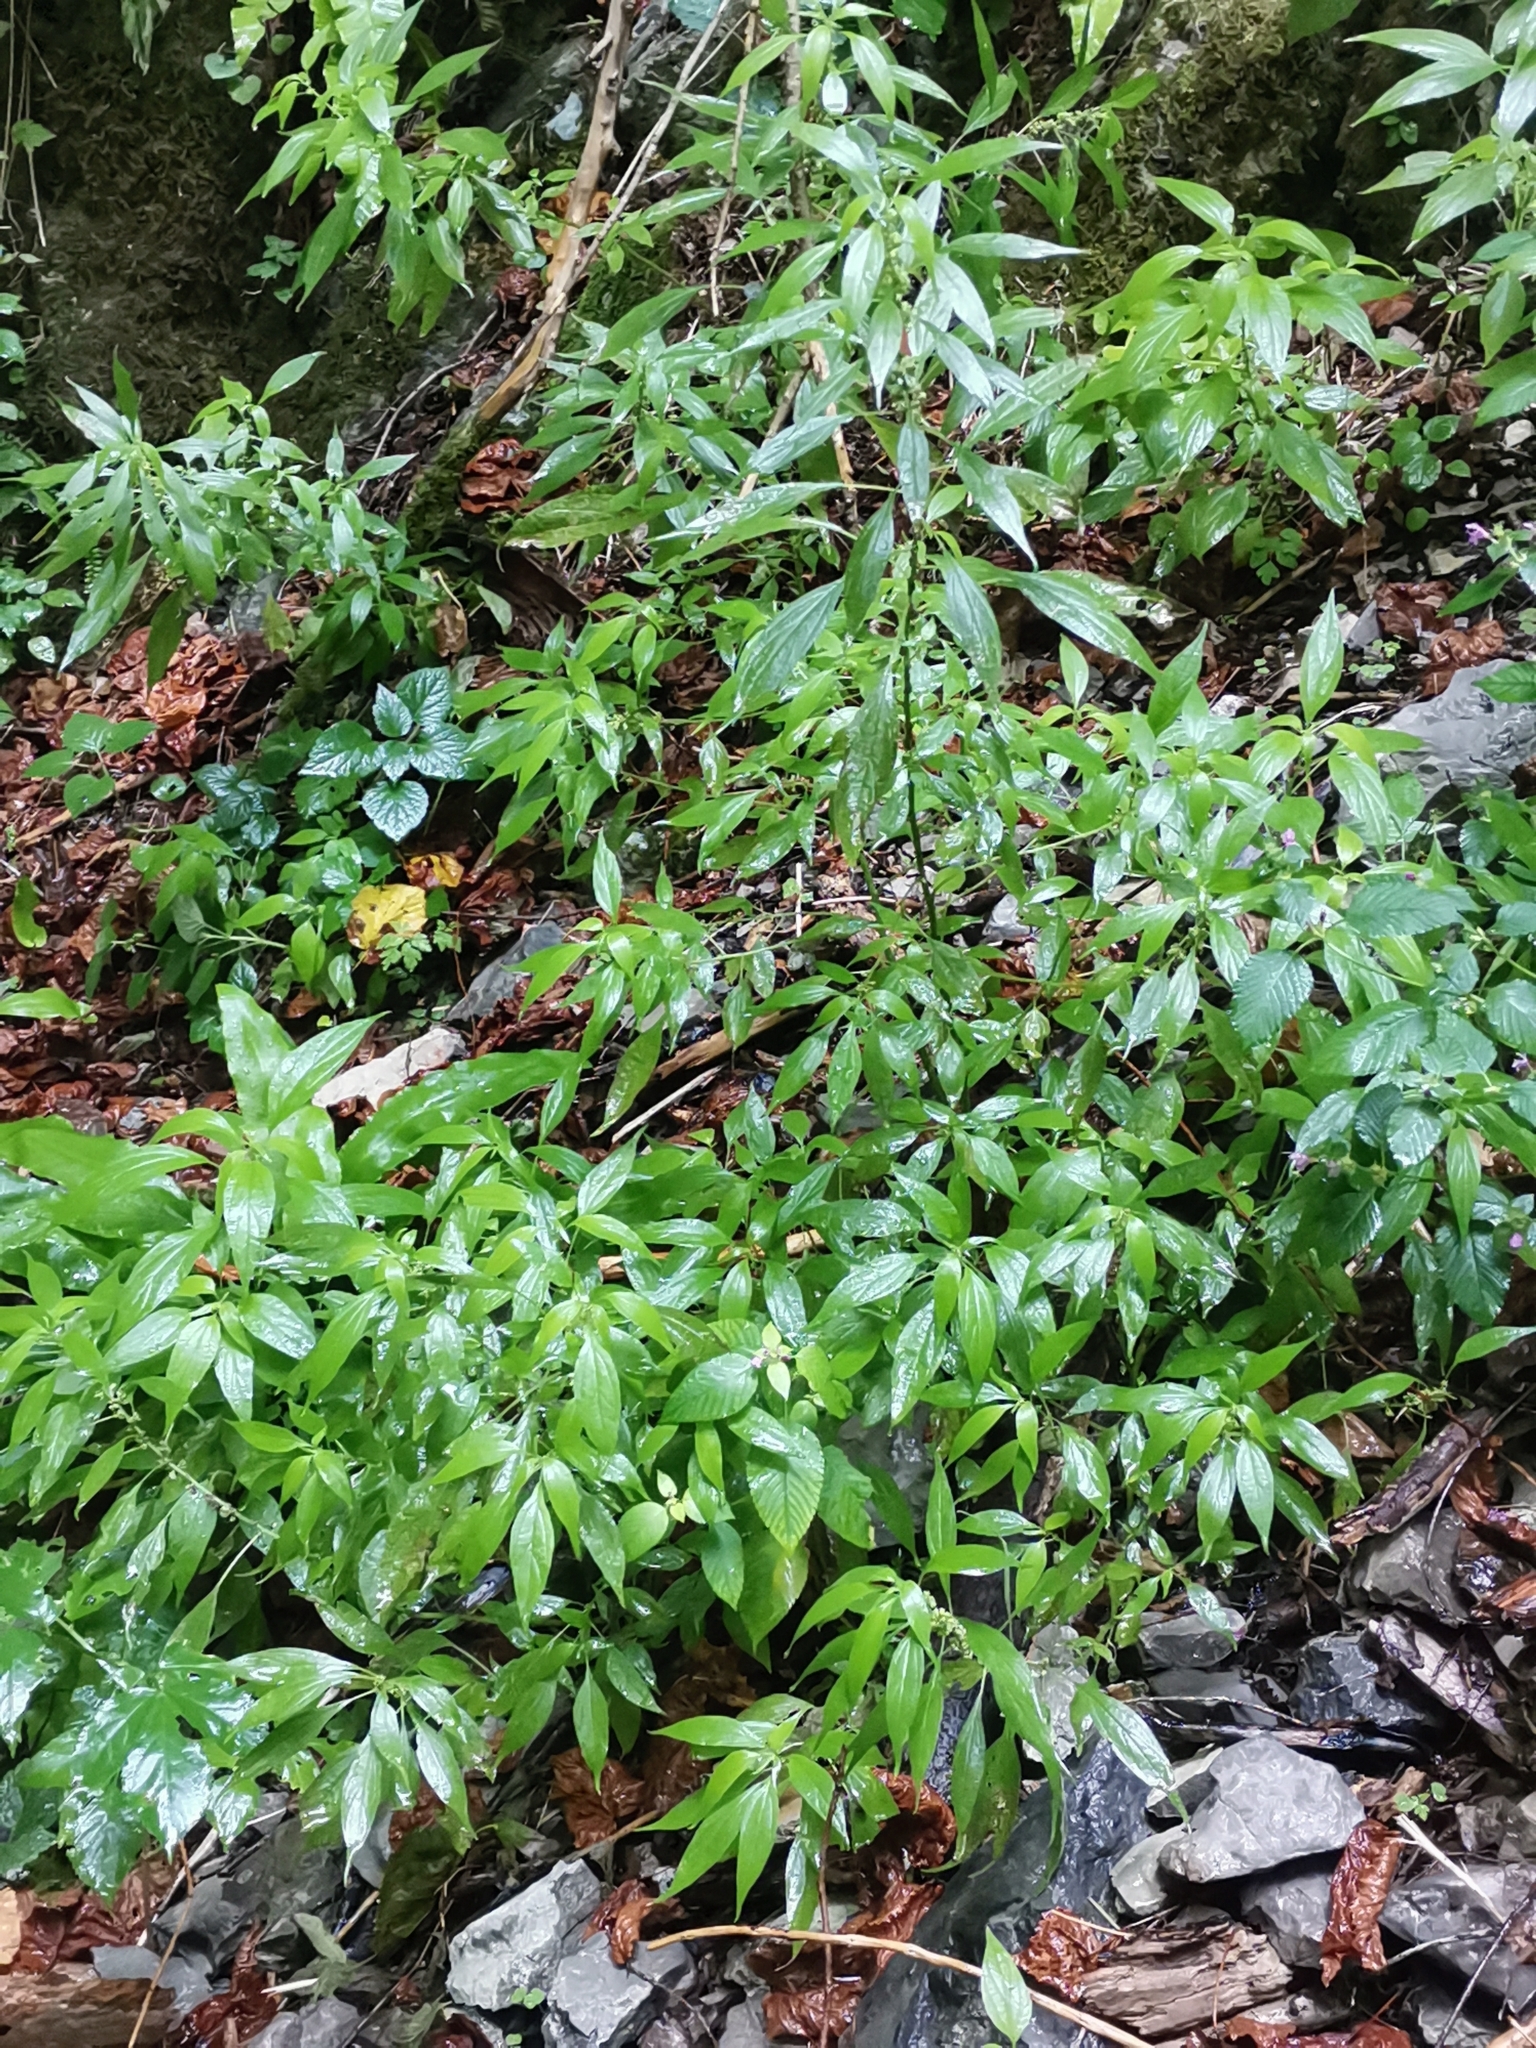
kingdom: Plantae
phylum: Tracheophyta
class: Magnoliopsida
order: Rosales
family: Urticaceae
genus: Parietaria
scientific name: Parietaria officinalis
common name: Eastern pellitory-of-the-wall
